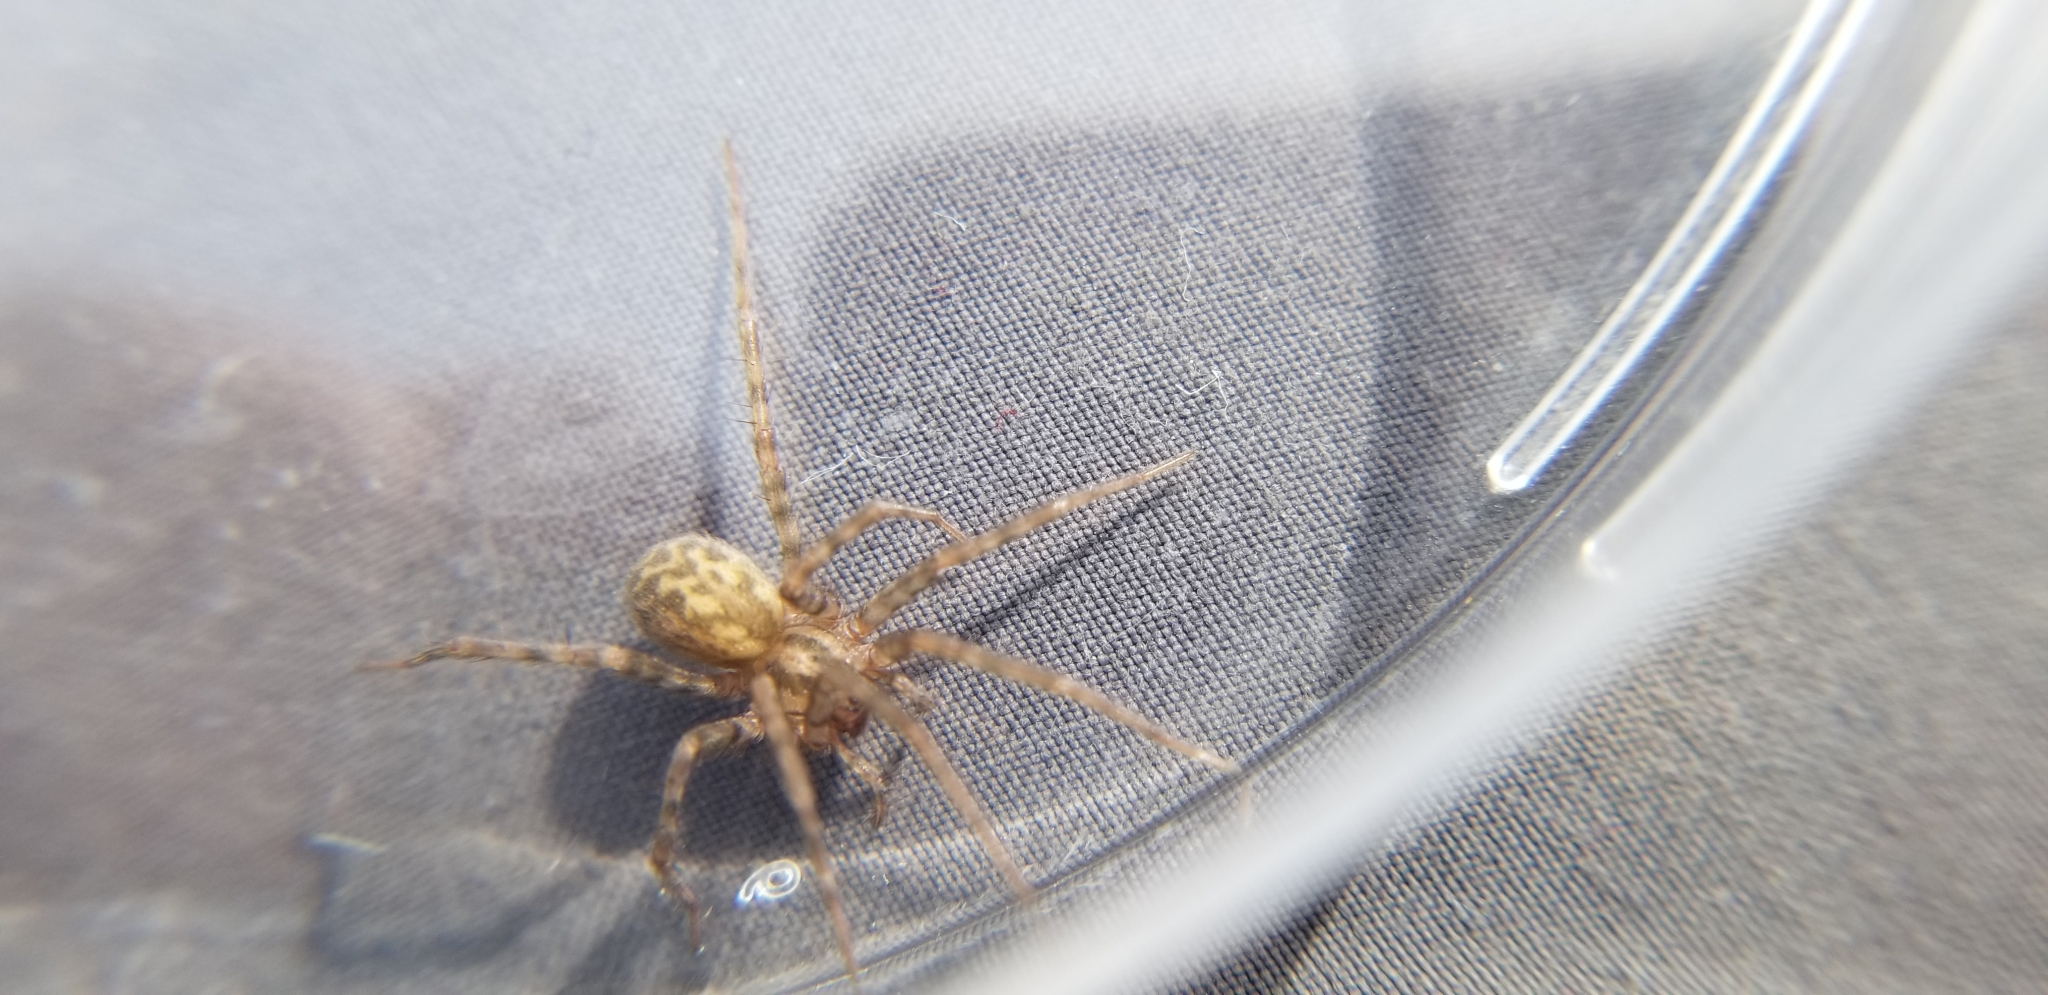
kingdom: Animalia
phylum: Arthropoda
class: Arachnida
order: Araneae
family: Agelenidae
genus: Tegenaria
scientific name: Tegenaria domestica
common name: Barn funnel weaver
